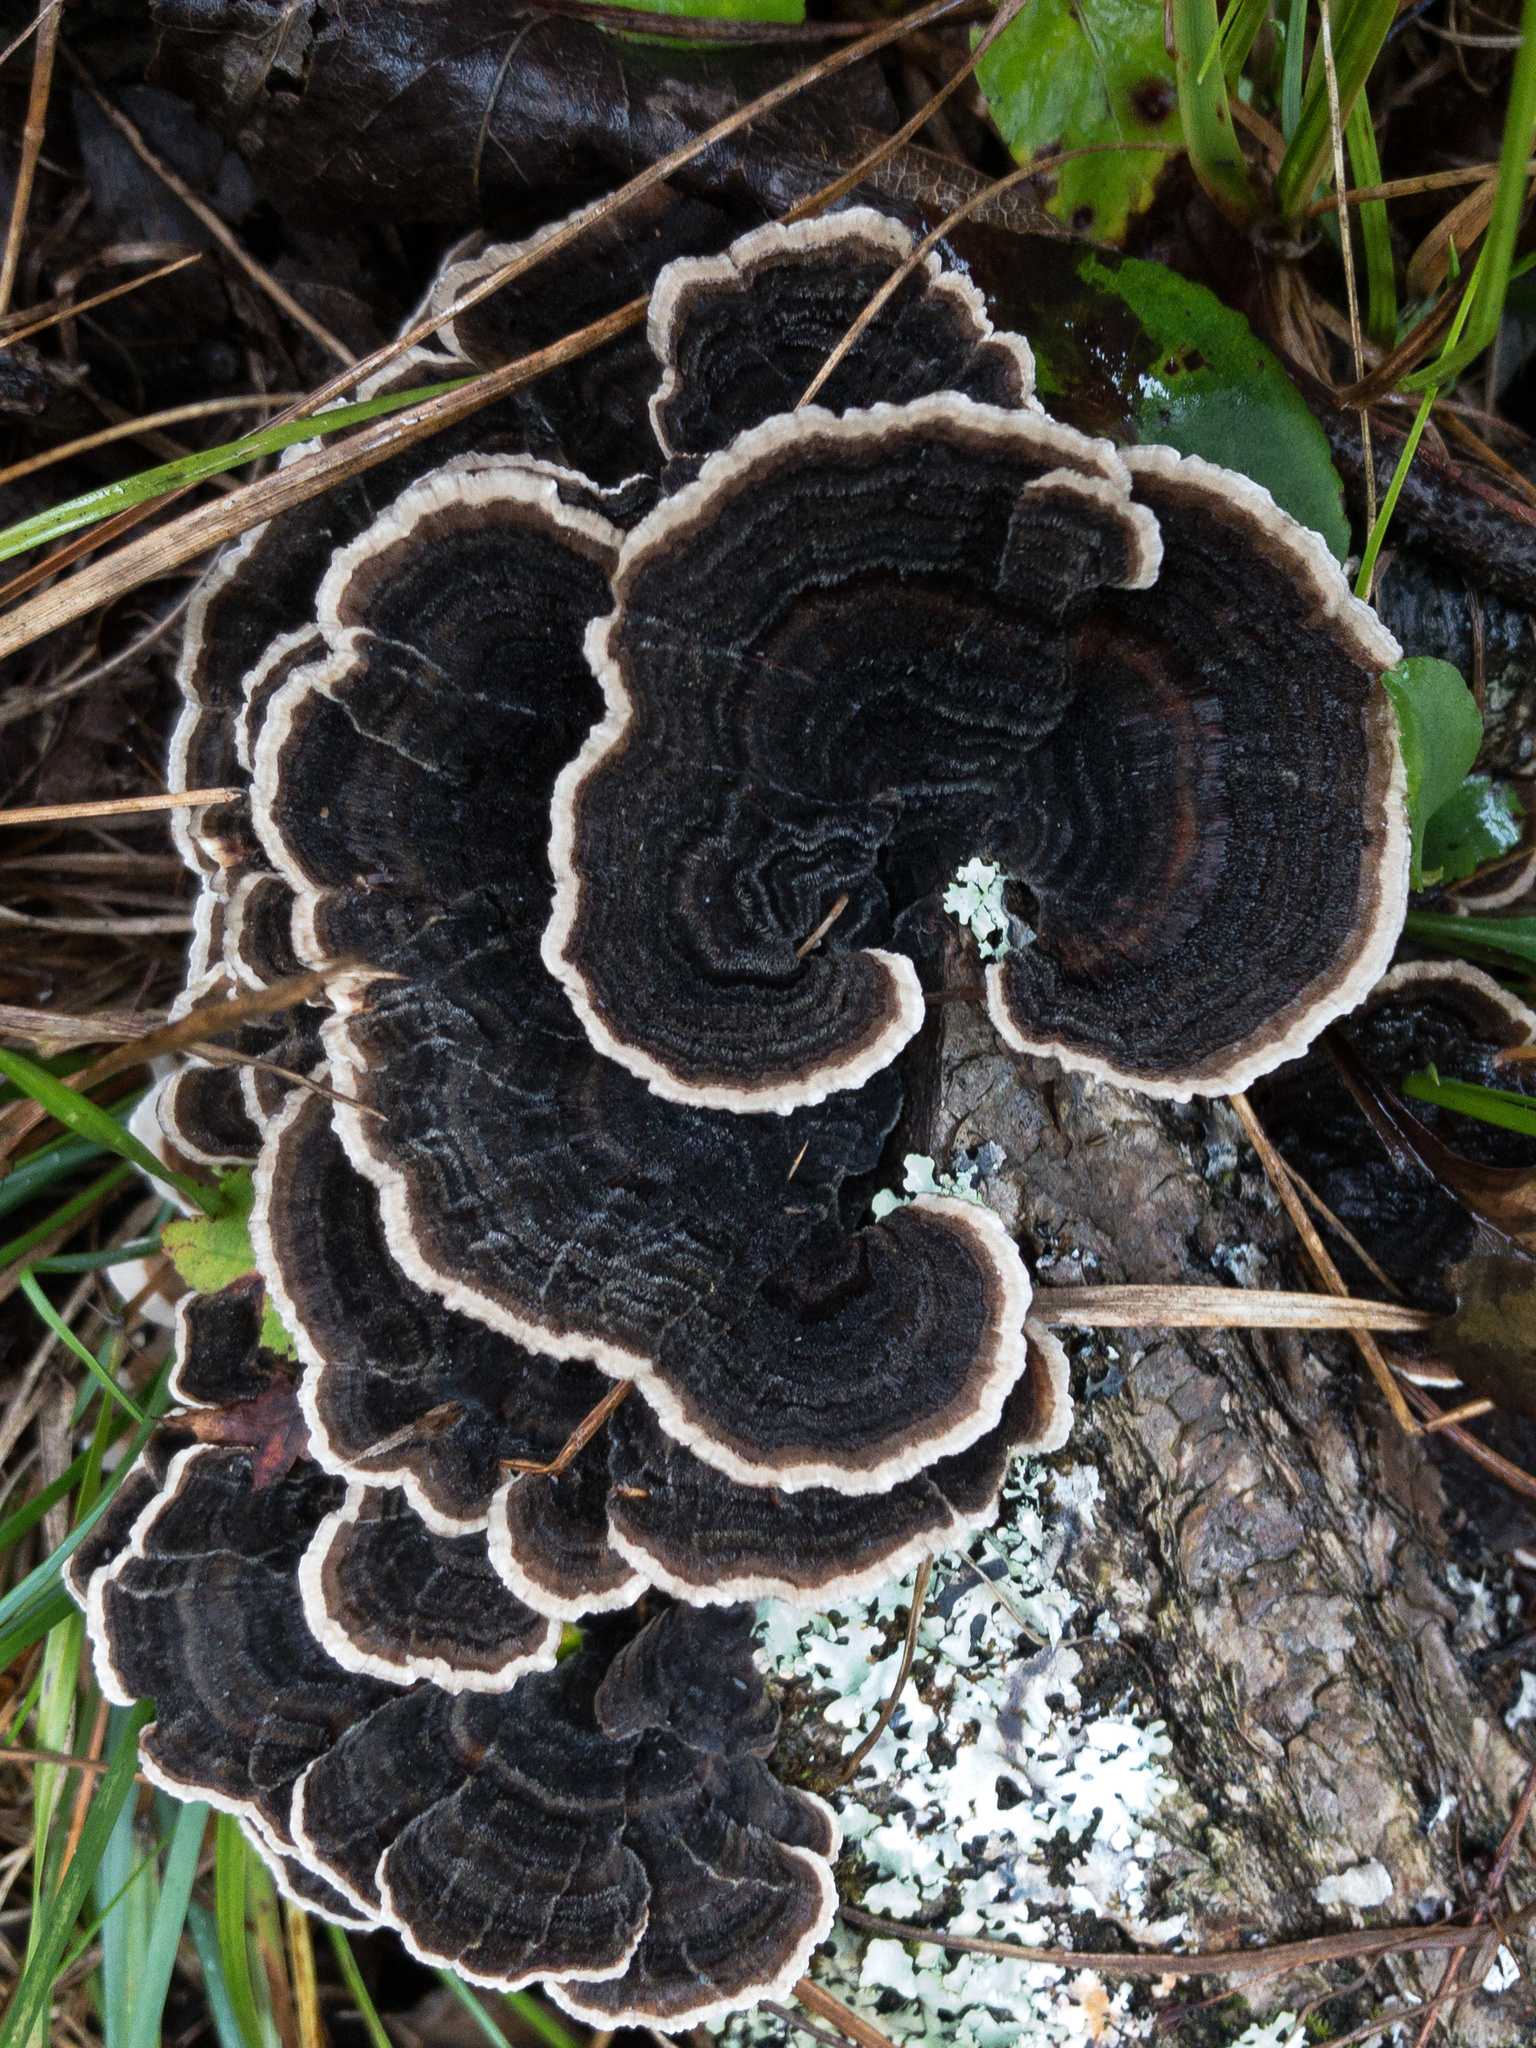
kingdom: Fungi
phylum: Basidiomycota
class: Agaricomycetes
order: Polyporales
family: Polyporaceae
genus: Trametes
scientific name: Trametes versicolor
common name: Turkeytail
